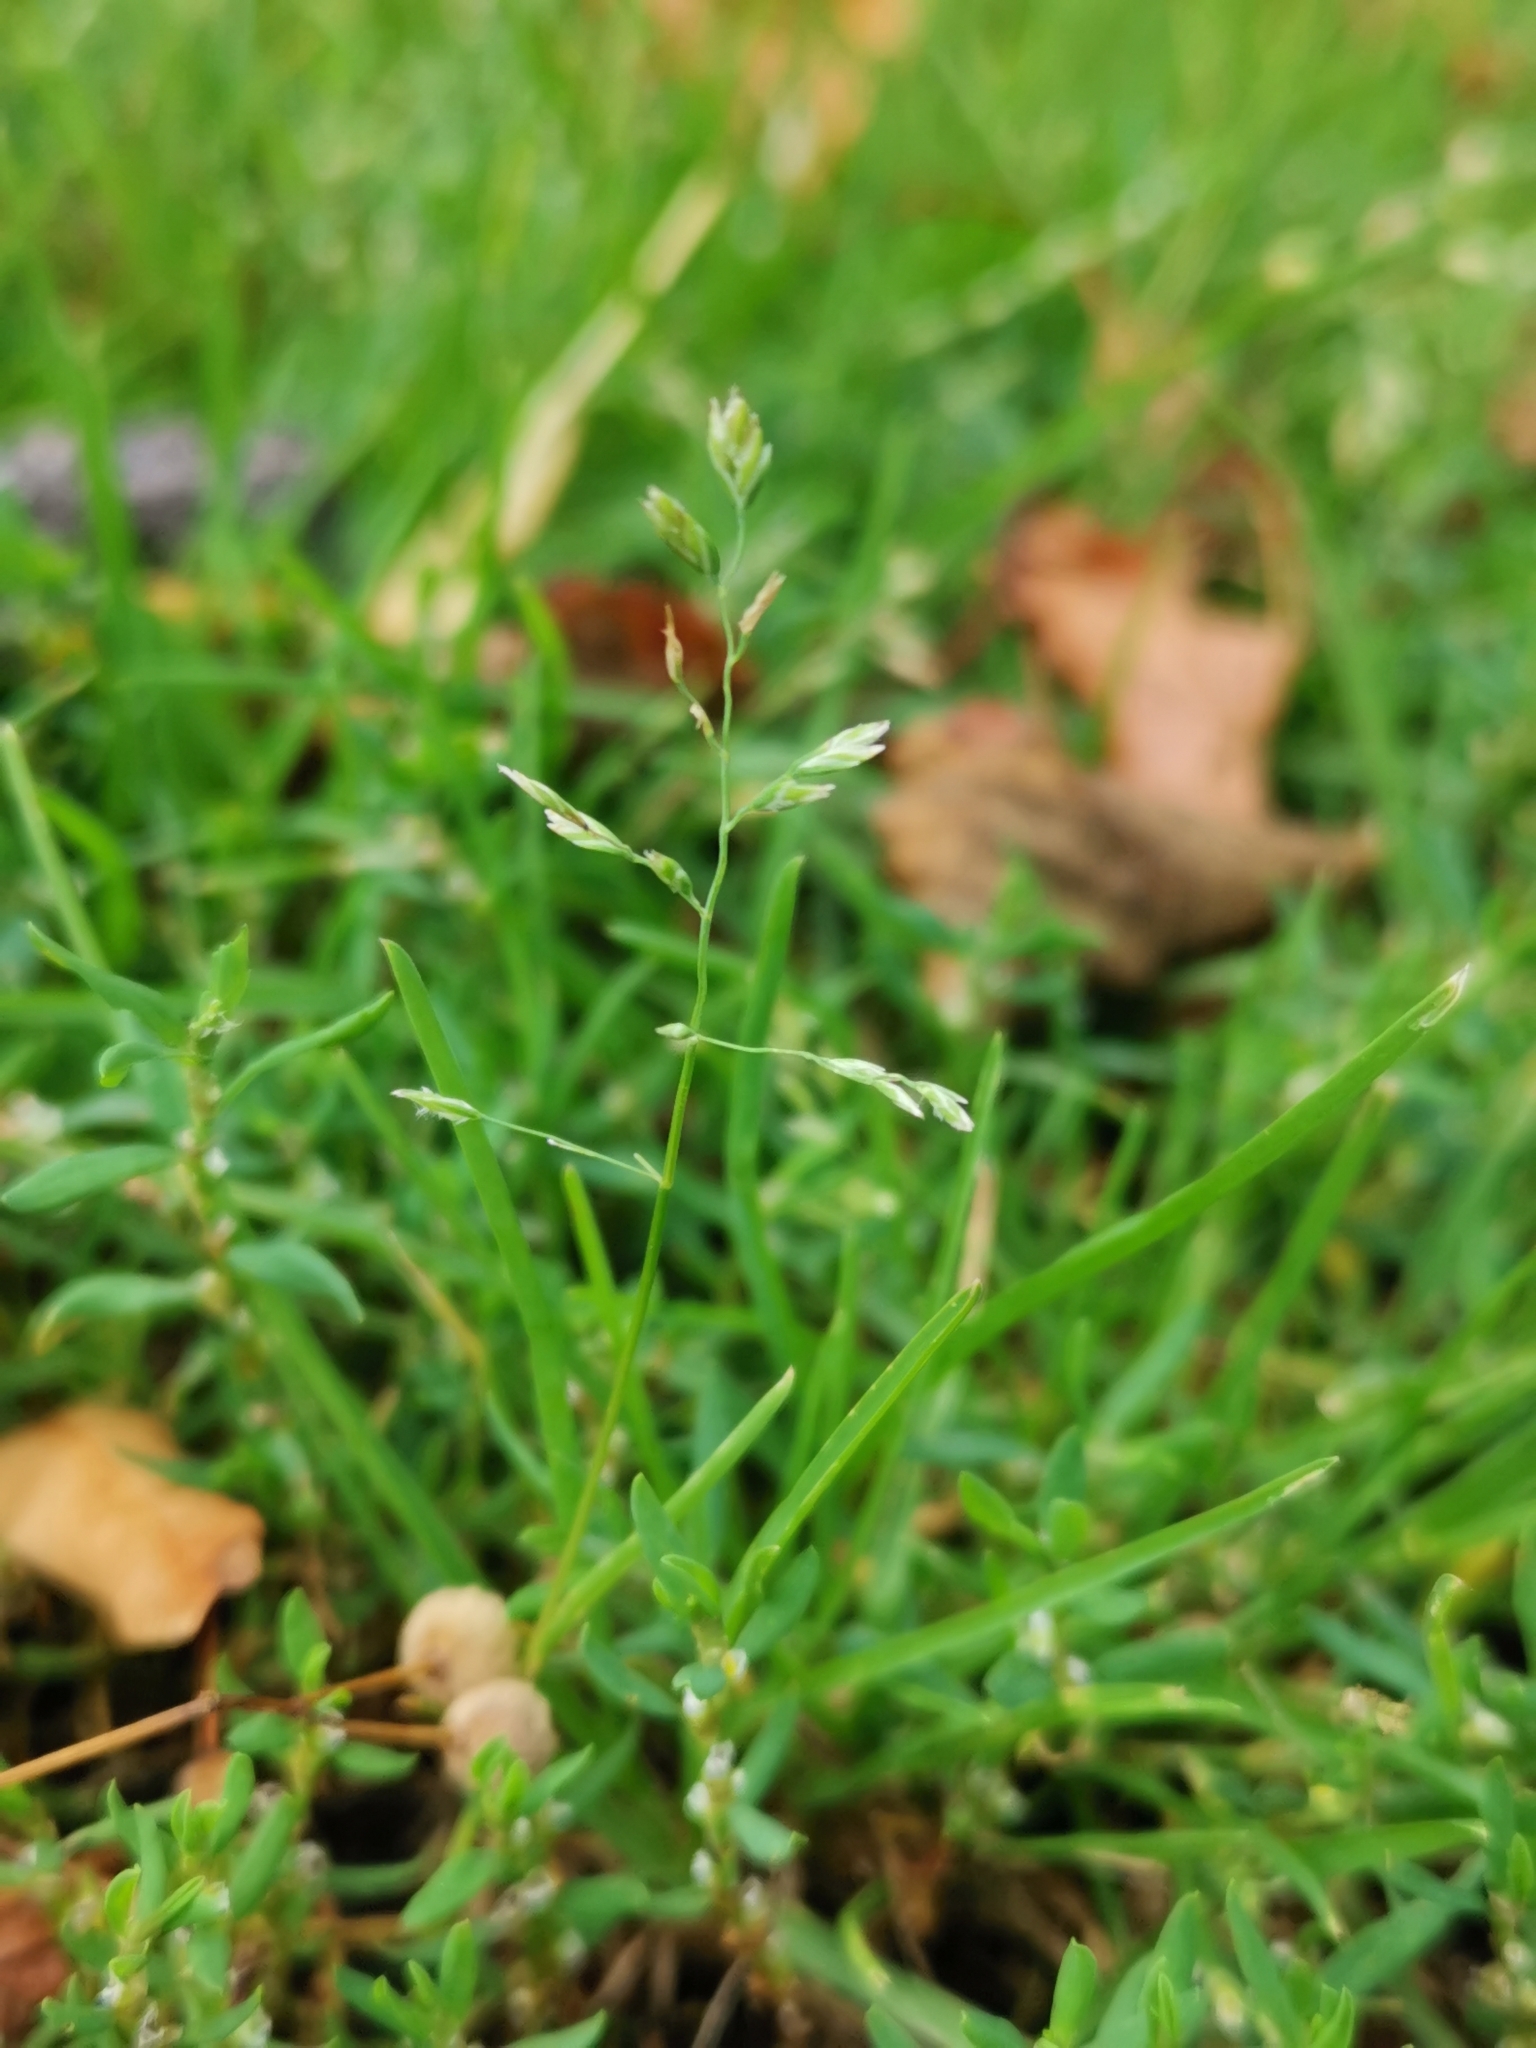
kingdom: Plantae
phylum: Tracheophyta
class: Liliopsida
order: Poales
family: Poaceae
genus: Poa
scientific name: Poa annua
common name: Annual bluegrass
